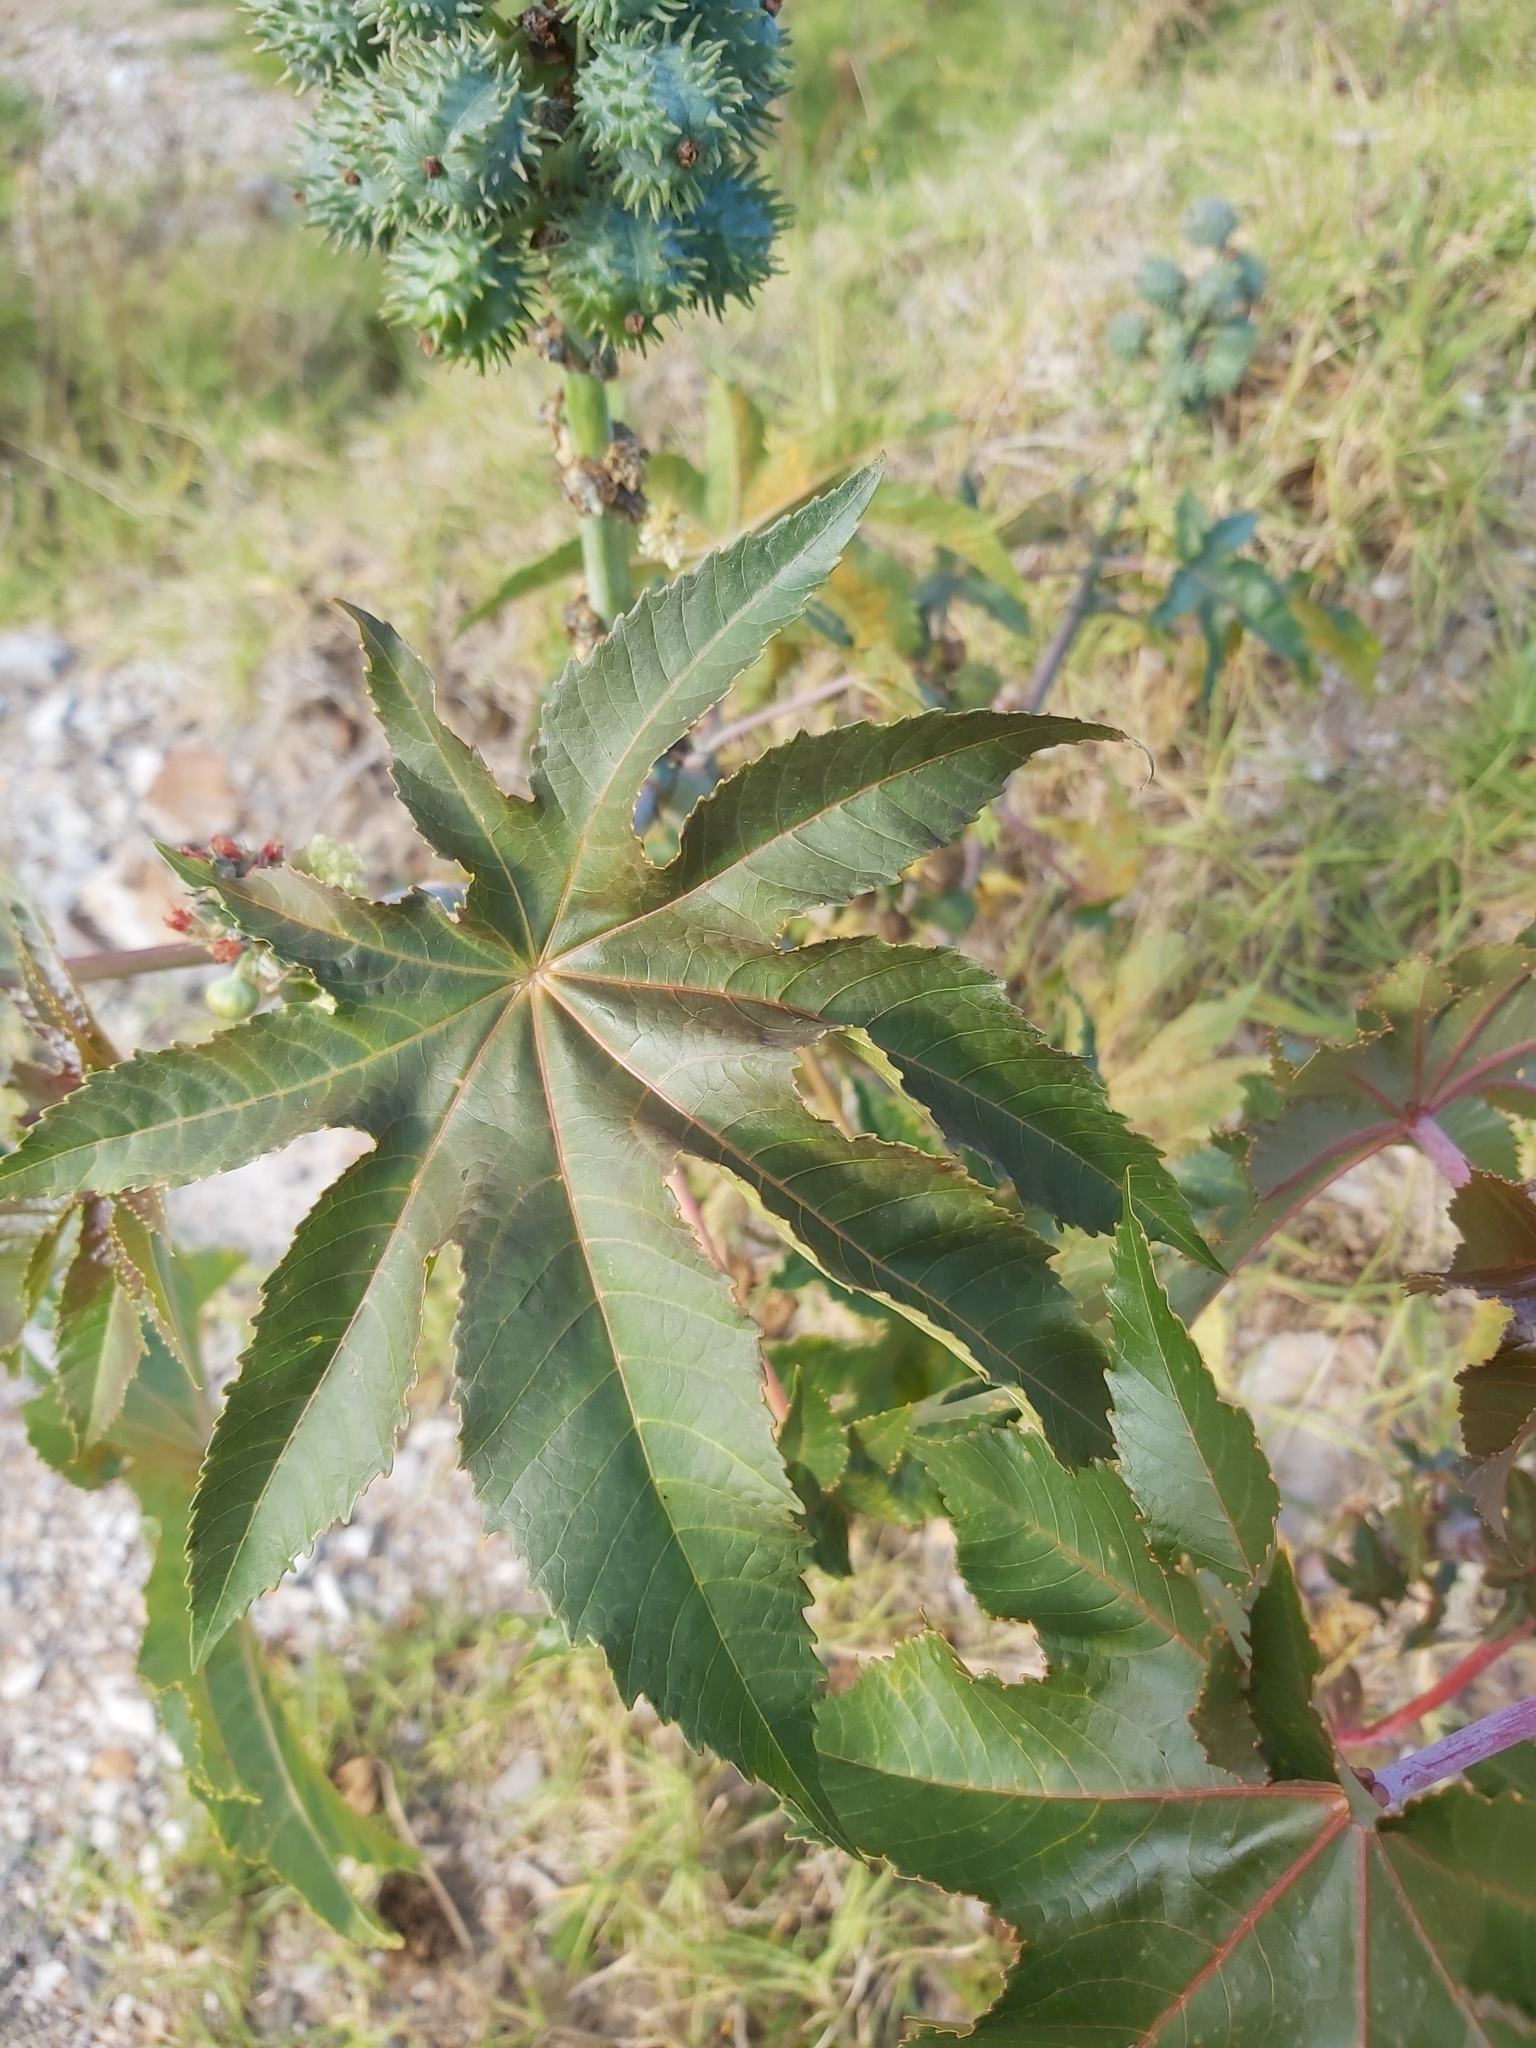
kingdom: Plantae
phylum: Tracheophyta
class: Magnoliopsida
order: Malpighiales
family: Euphorbiaceae
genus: Ricinus
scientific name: Ricinus communis
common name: Castor-oil-plant
